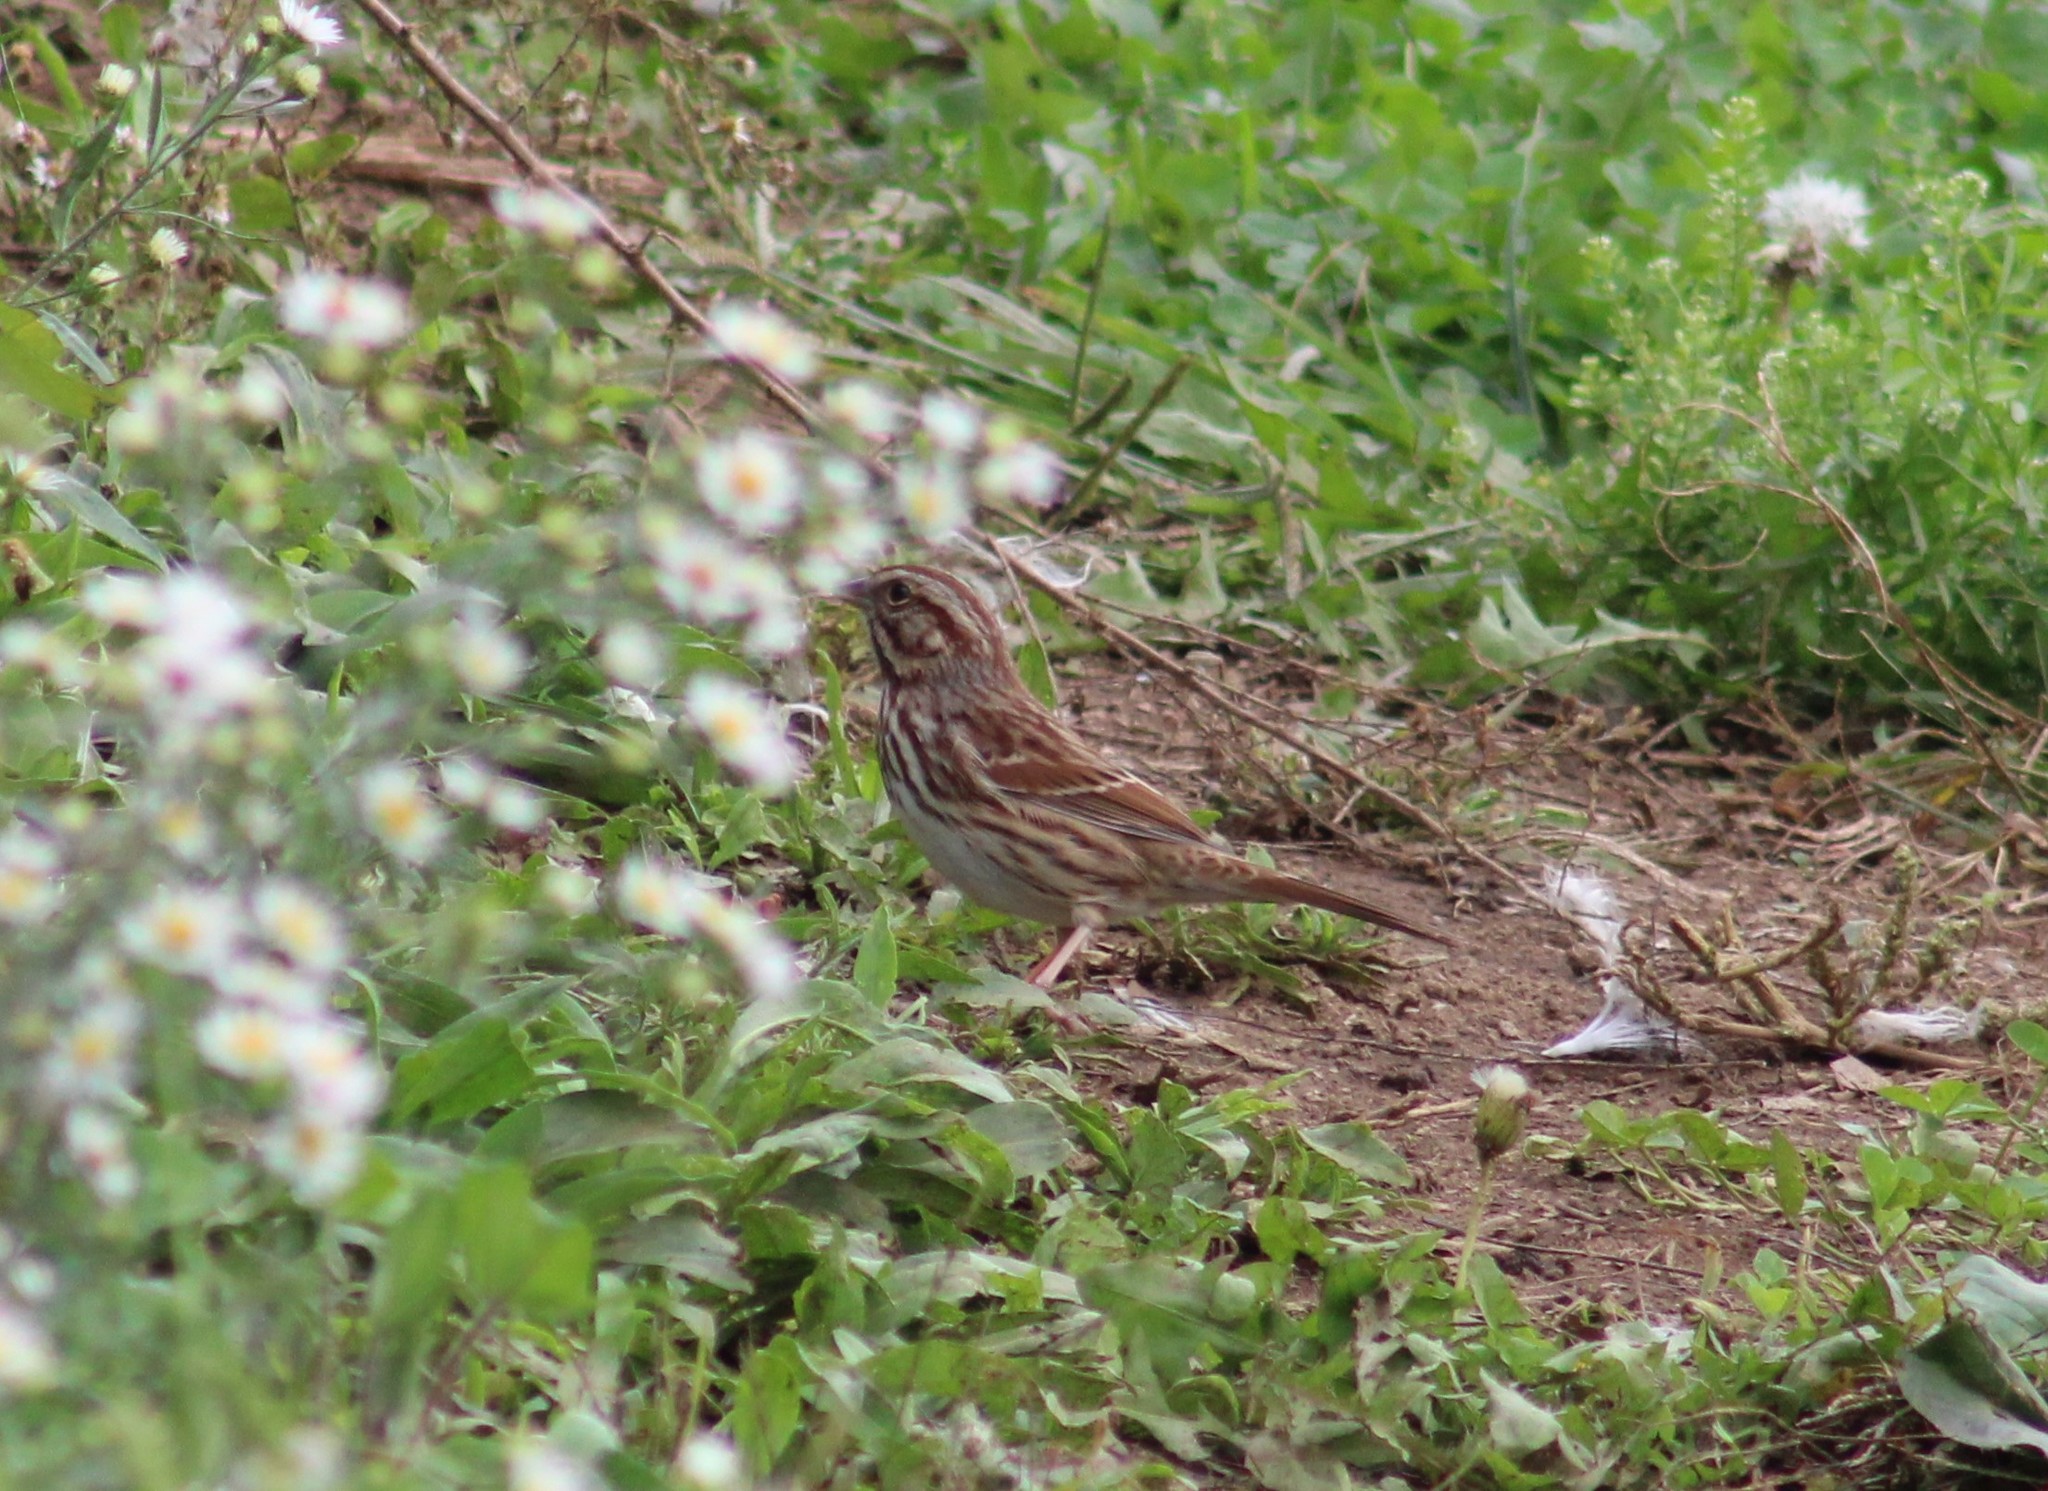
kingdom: Animalia
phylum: Chordata
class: Aves
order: Passeriformes
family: Passerellidae
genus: Melospiza
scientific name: Melospiza melodia
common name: Song sparrow
